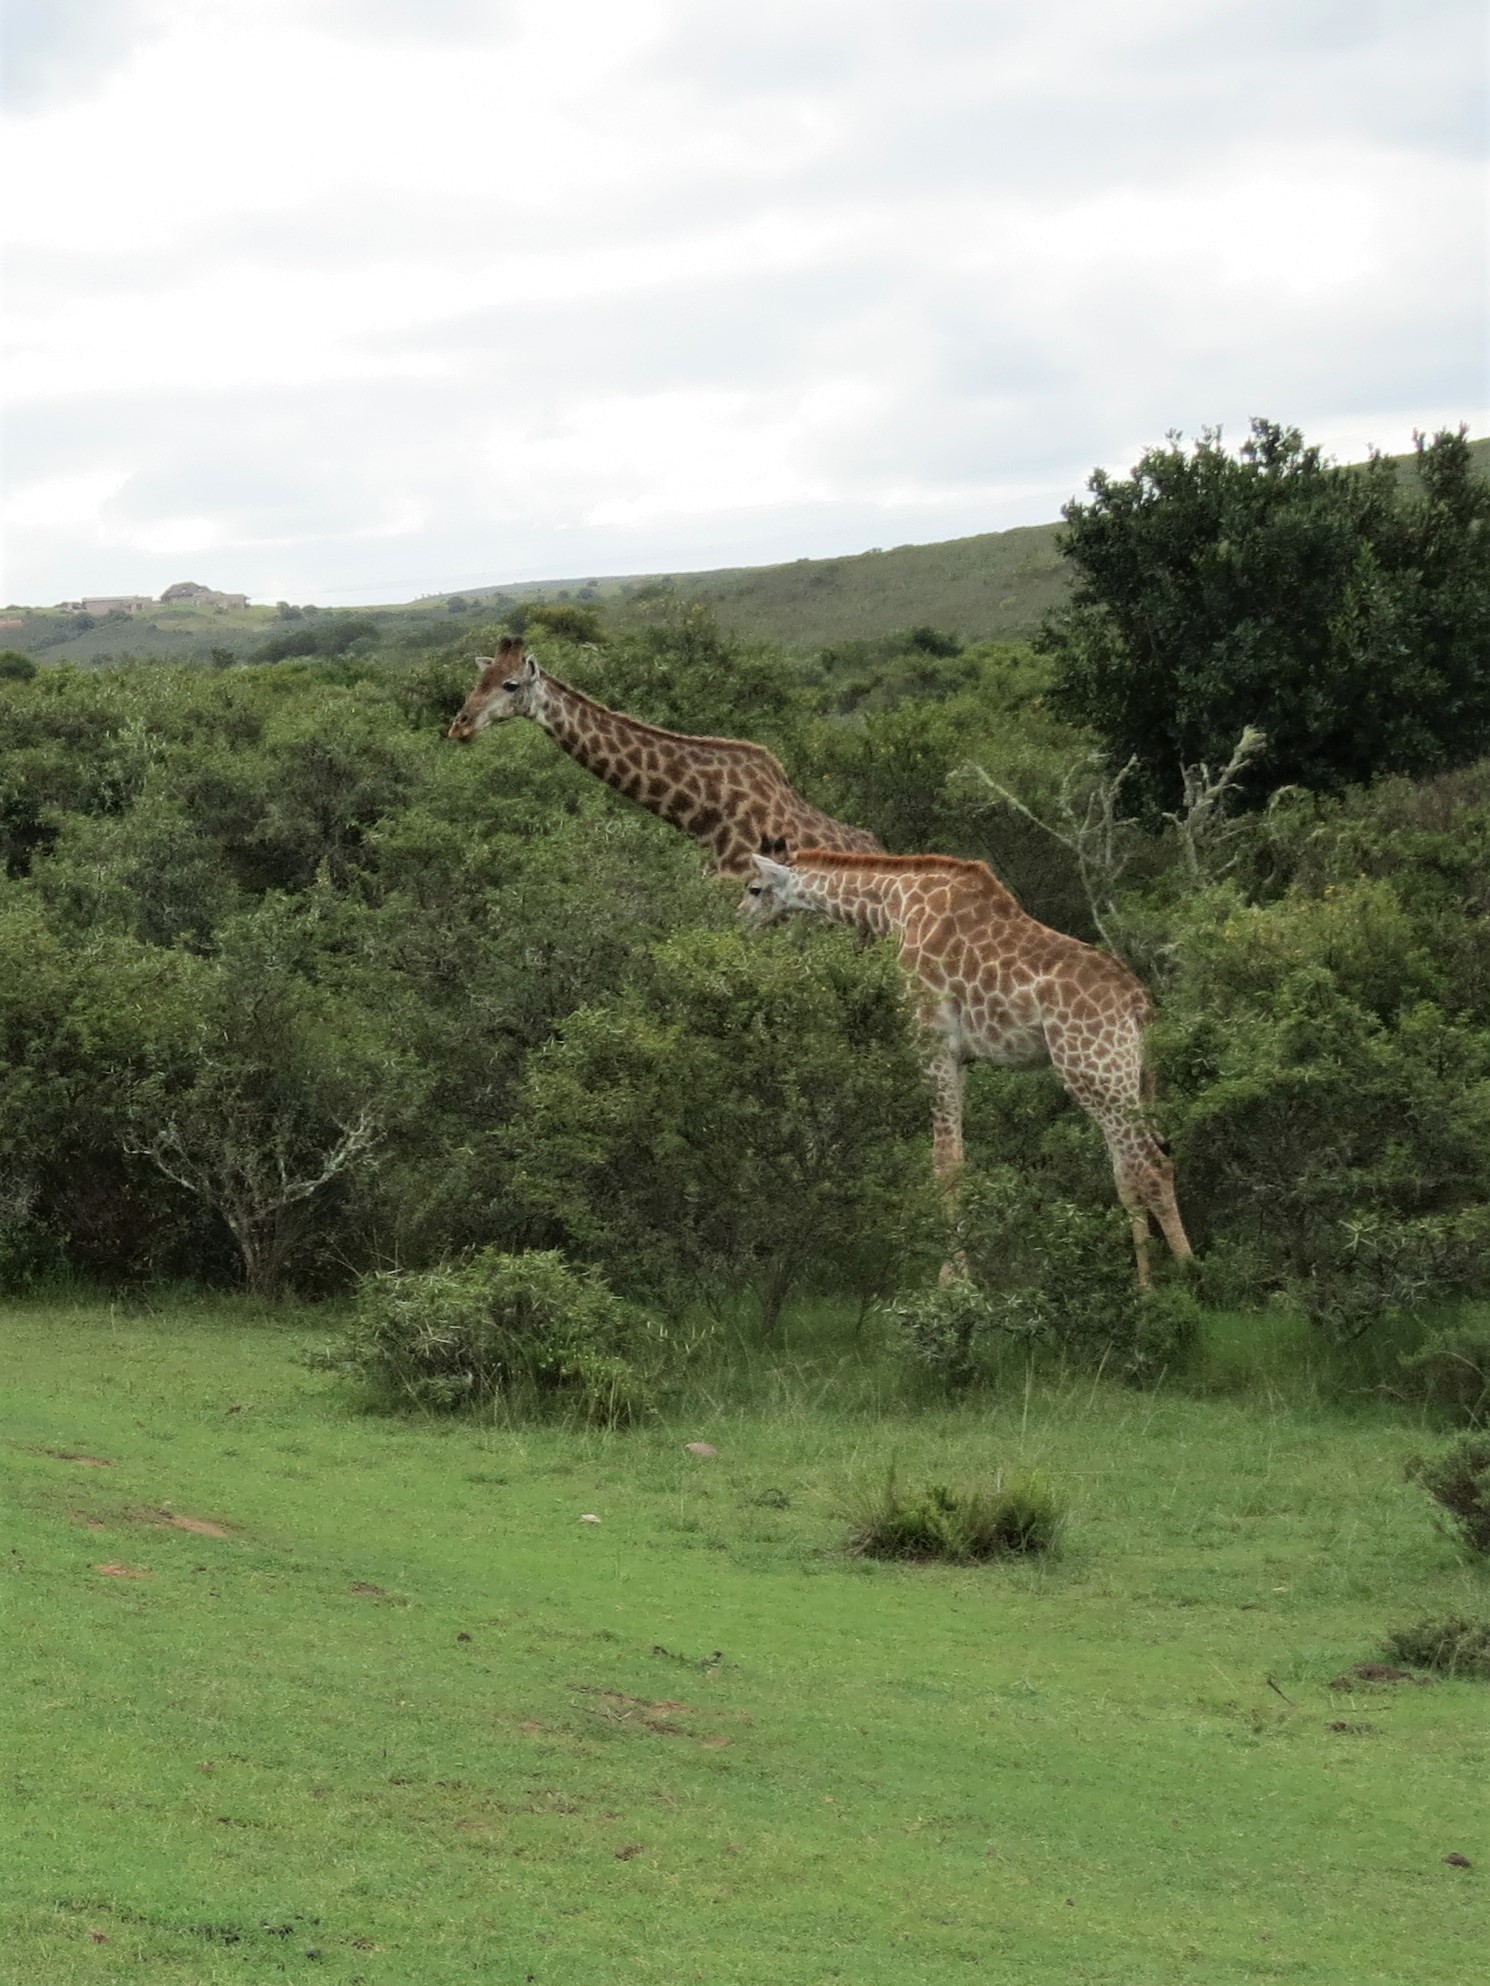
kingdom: Animalia
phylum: Chordata
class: Mammalia
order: Artiodactyla
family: Giraffidae
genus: Giraffa
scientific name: Giraffa giraffa
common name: Southern giraffe
